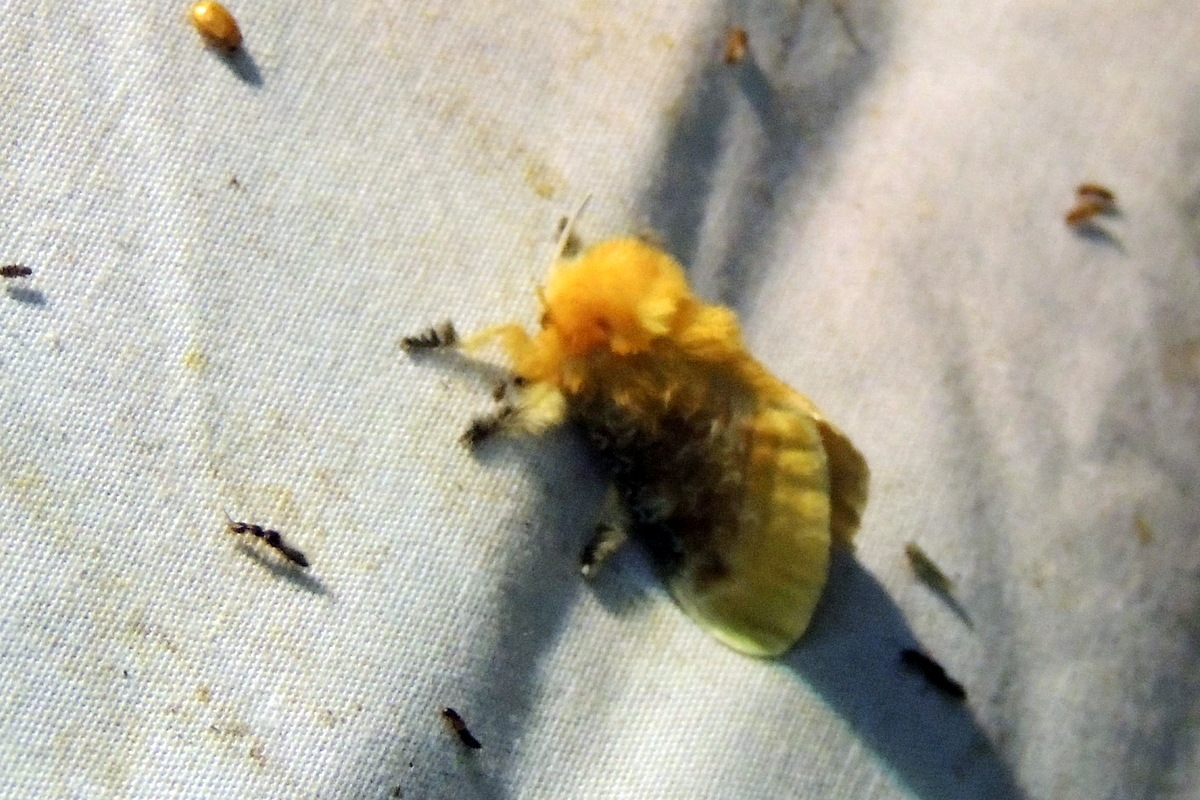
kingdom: Animalia
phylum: Arthropoda
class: Insecta
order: Lepidoptera
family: Megalopygidae
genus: Megalopyge
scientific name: Megalopyge opercularis
